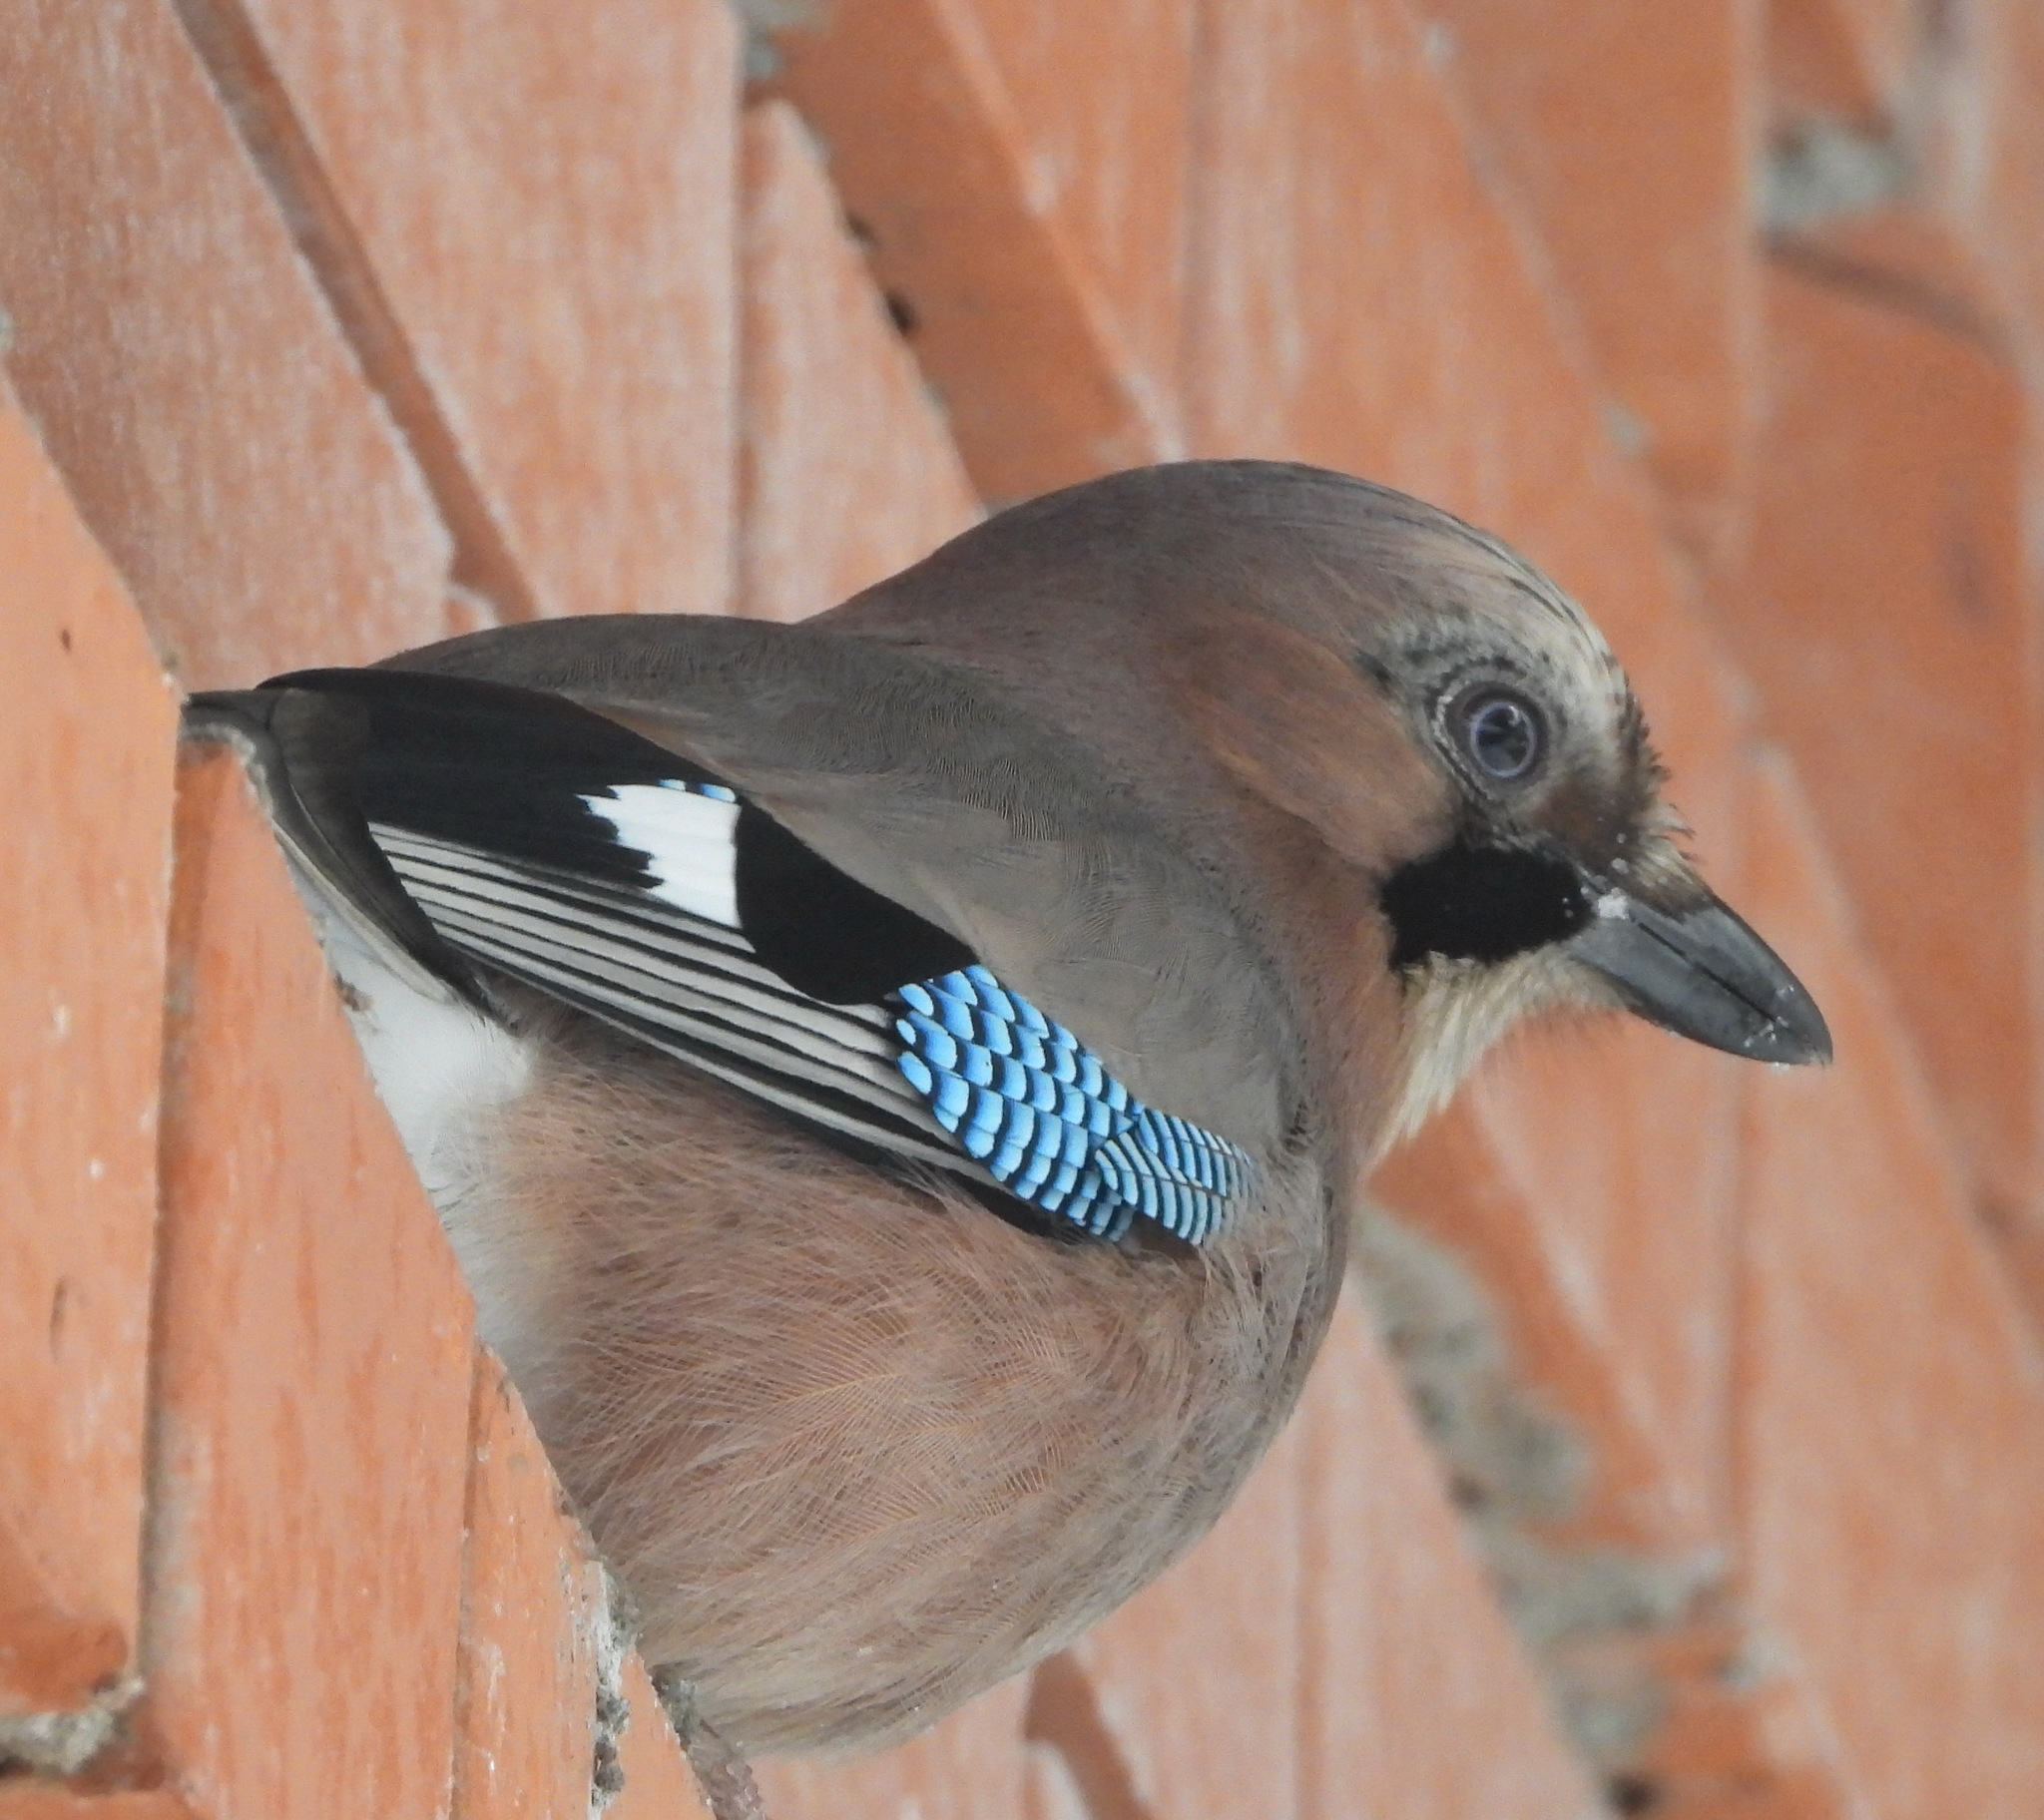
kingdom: Animalia
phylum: Chordata
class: Aves
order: Passeriformes
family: Corvidae
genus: Garrulus
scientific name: Garrulus glandarius
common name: Eurasian jay
